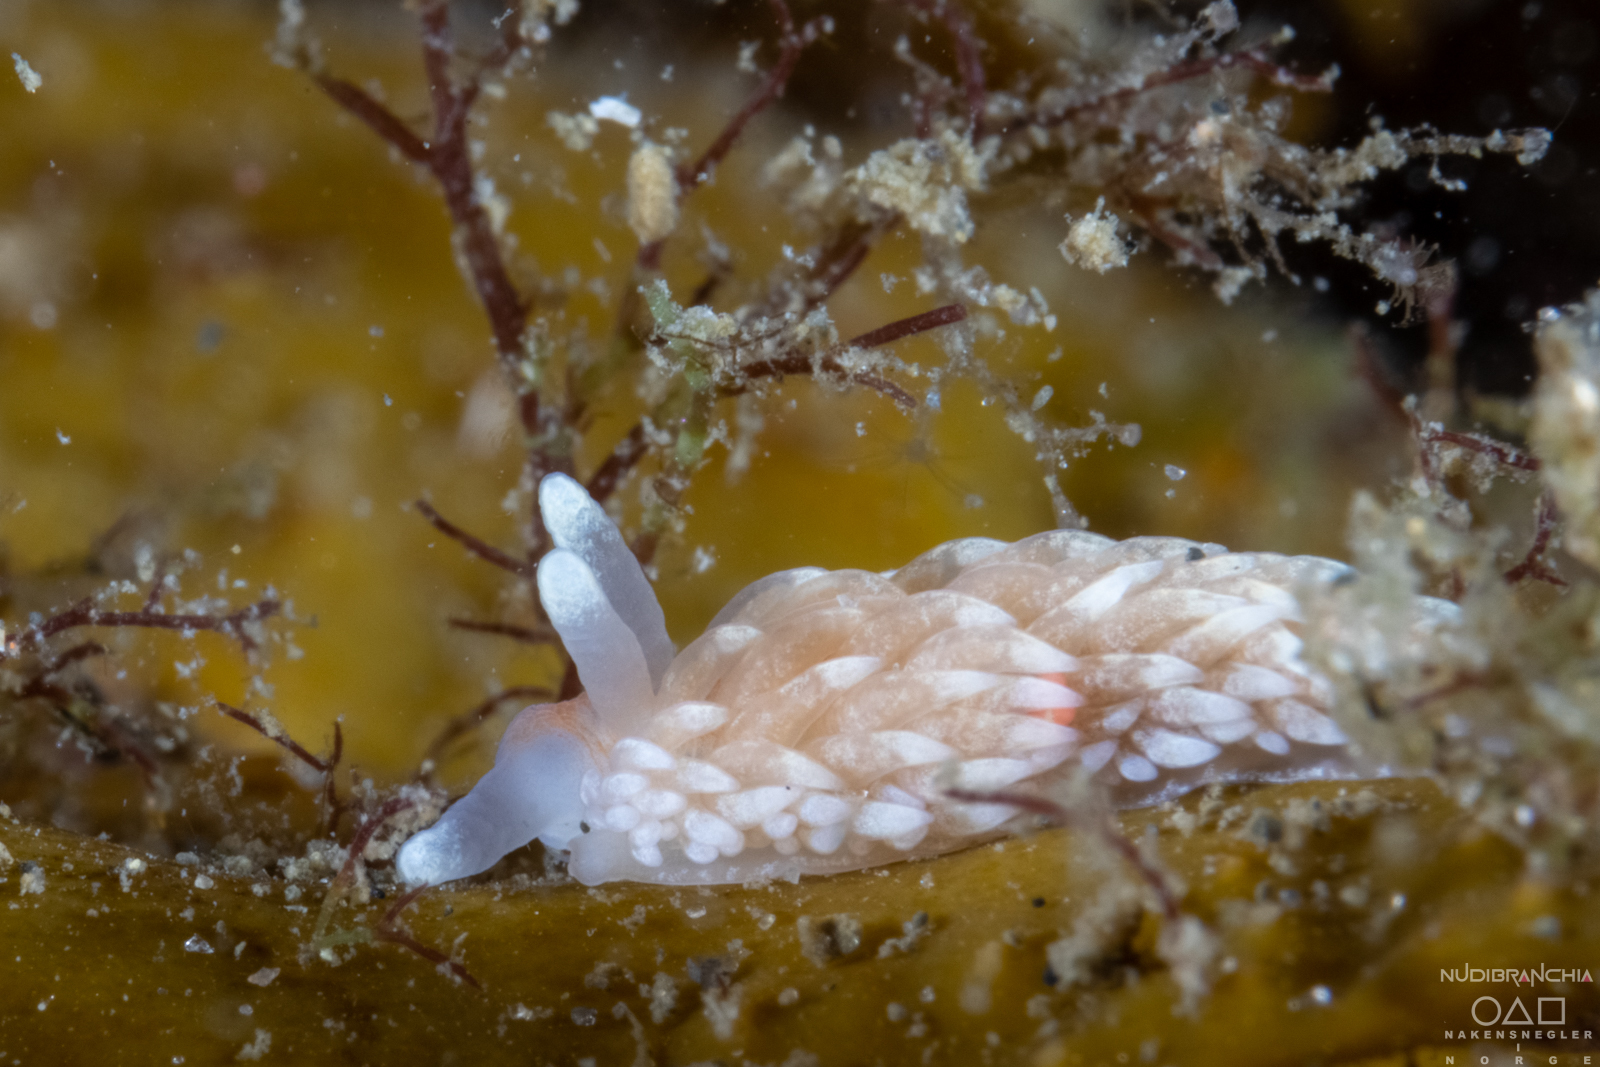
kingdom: Animalia
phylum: Mollusca
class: Gastropoda
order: Nudibranchia
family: Aeolidiidae
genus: Aeolidiella
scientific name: Aeolidiella glauca
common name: Orange-brown aeolid
